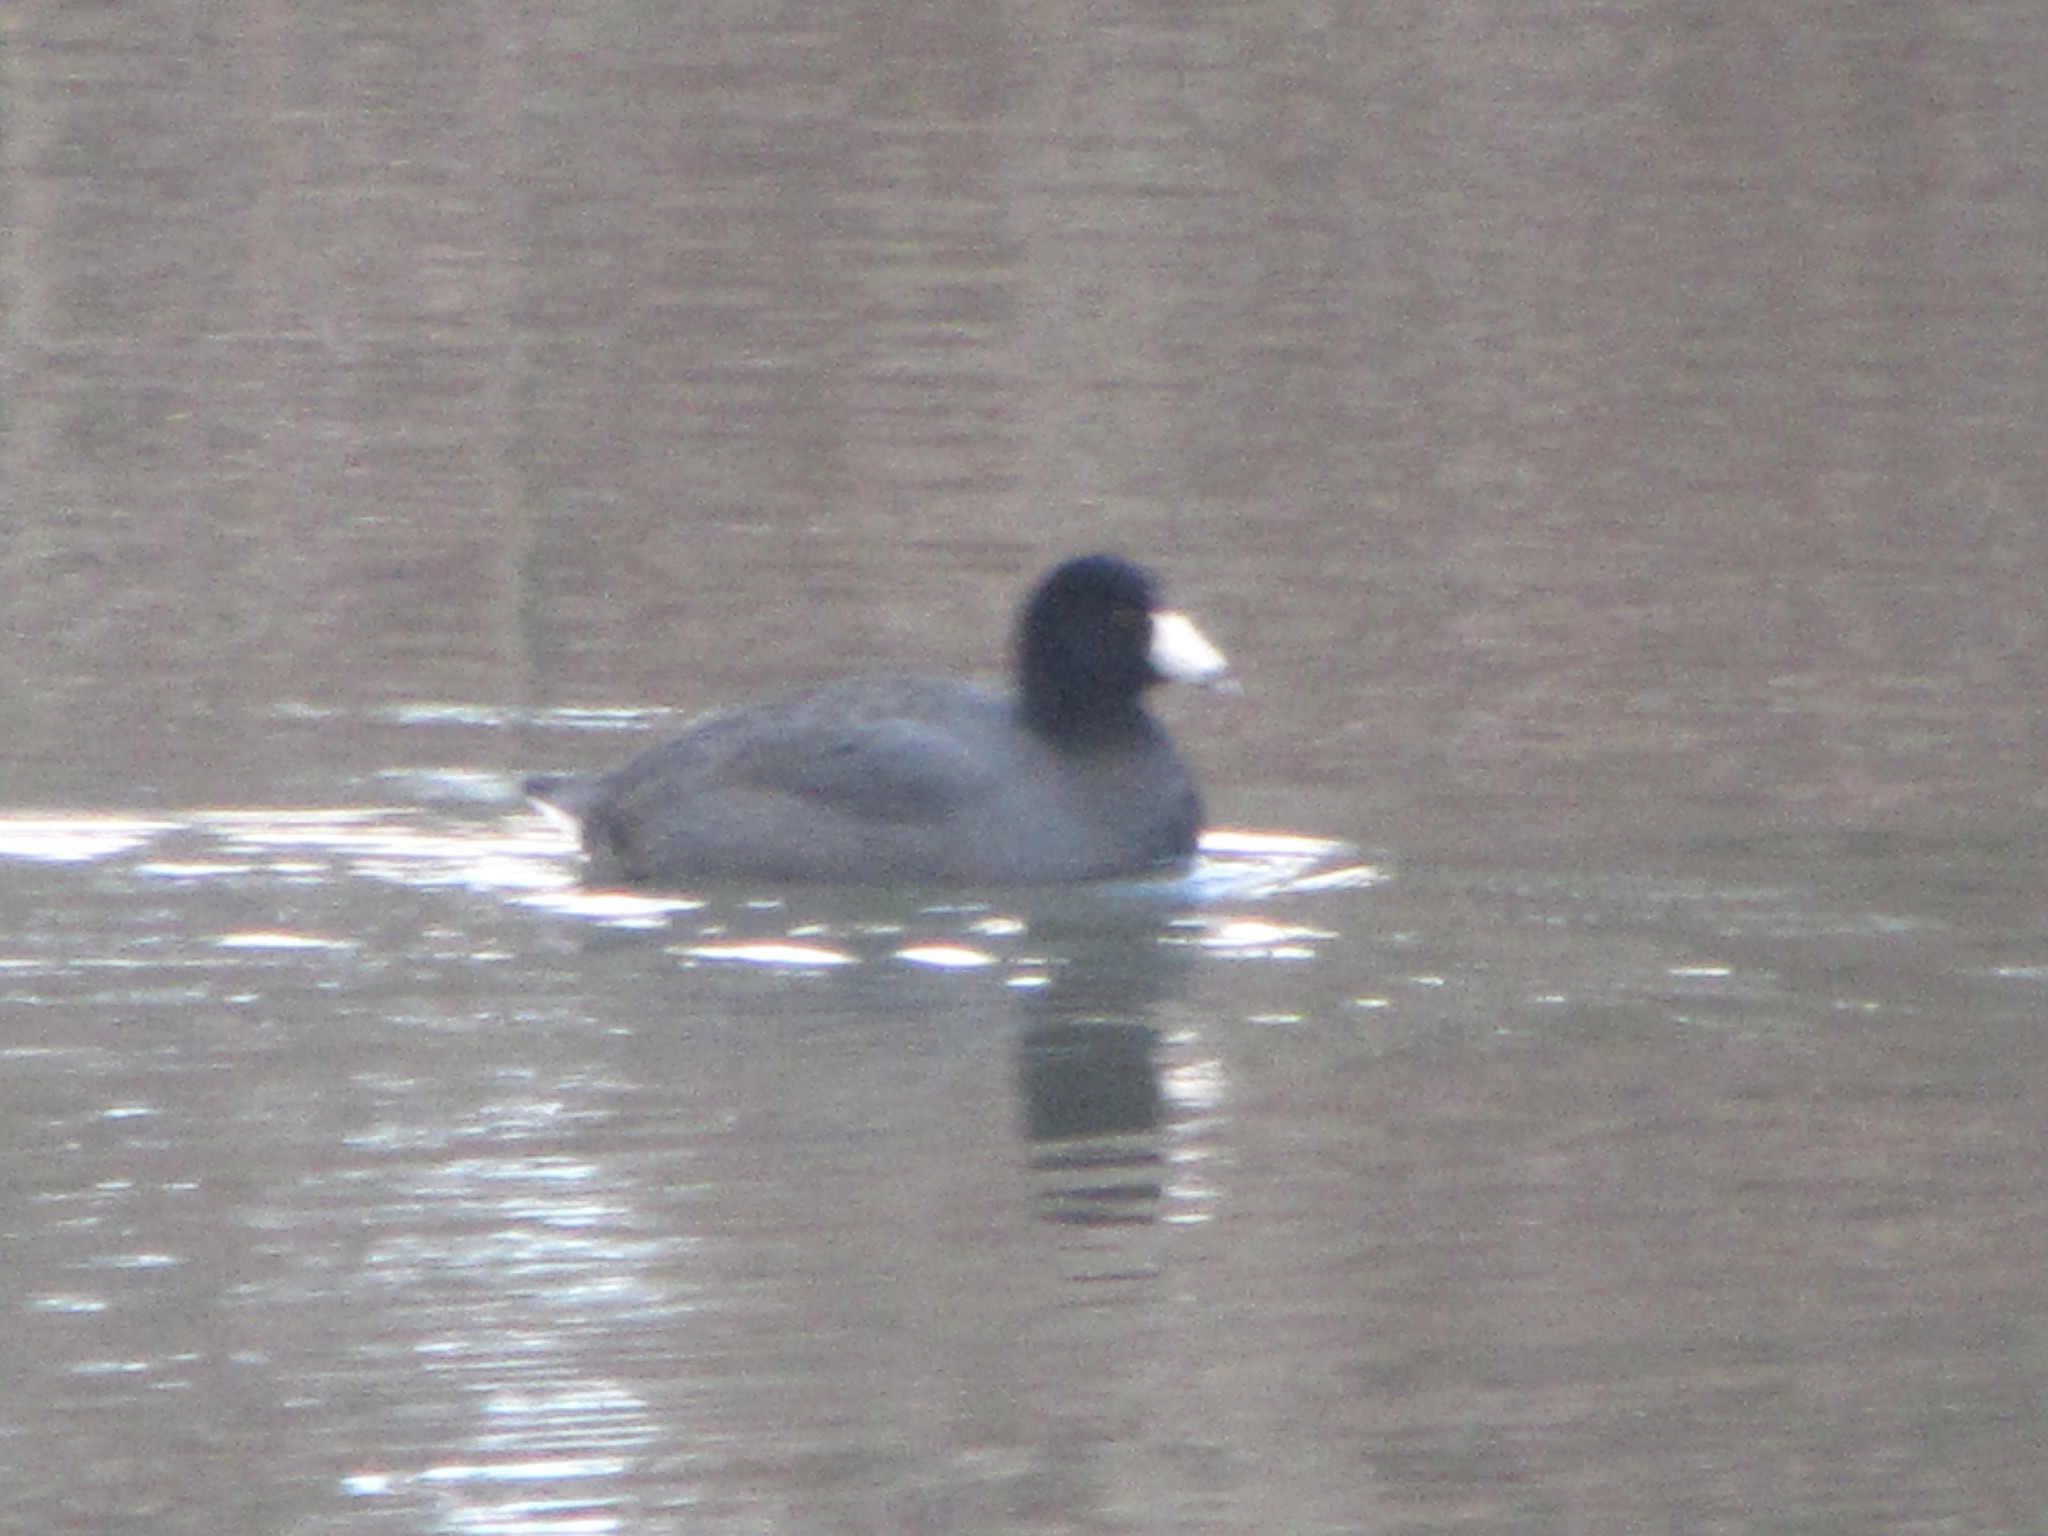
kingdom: Animalia
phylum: Chordata
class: Aves
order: Gruiformes
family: Rallidae
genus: Fulica
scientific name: Fulica americana
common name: American coot
